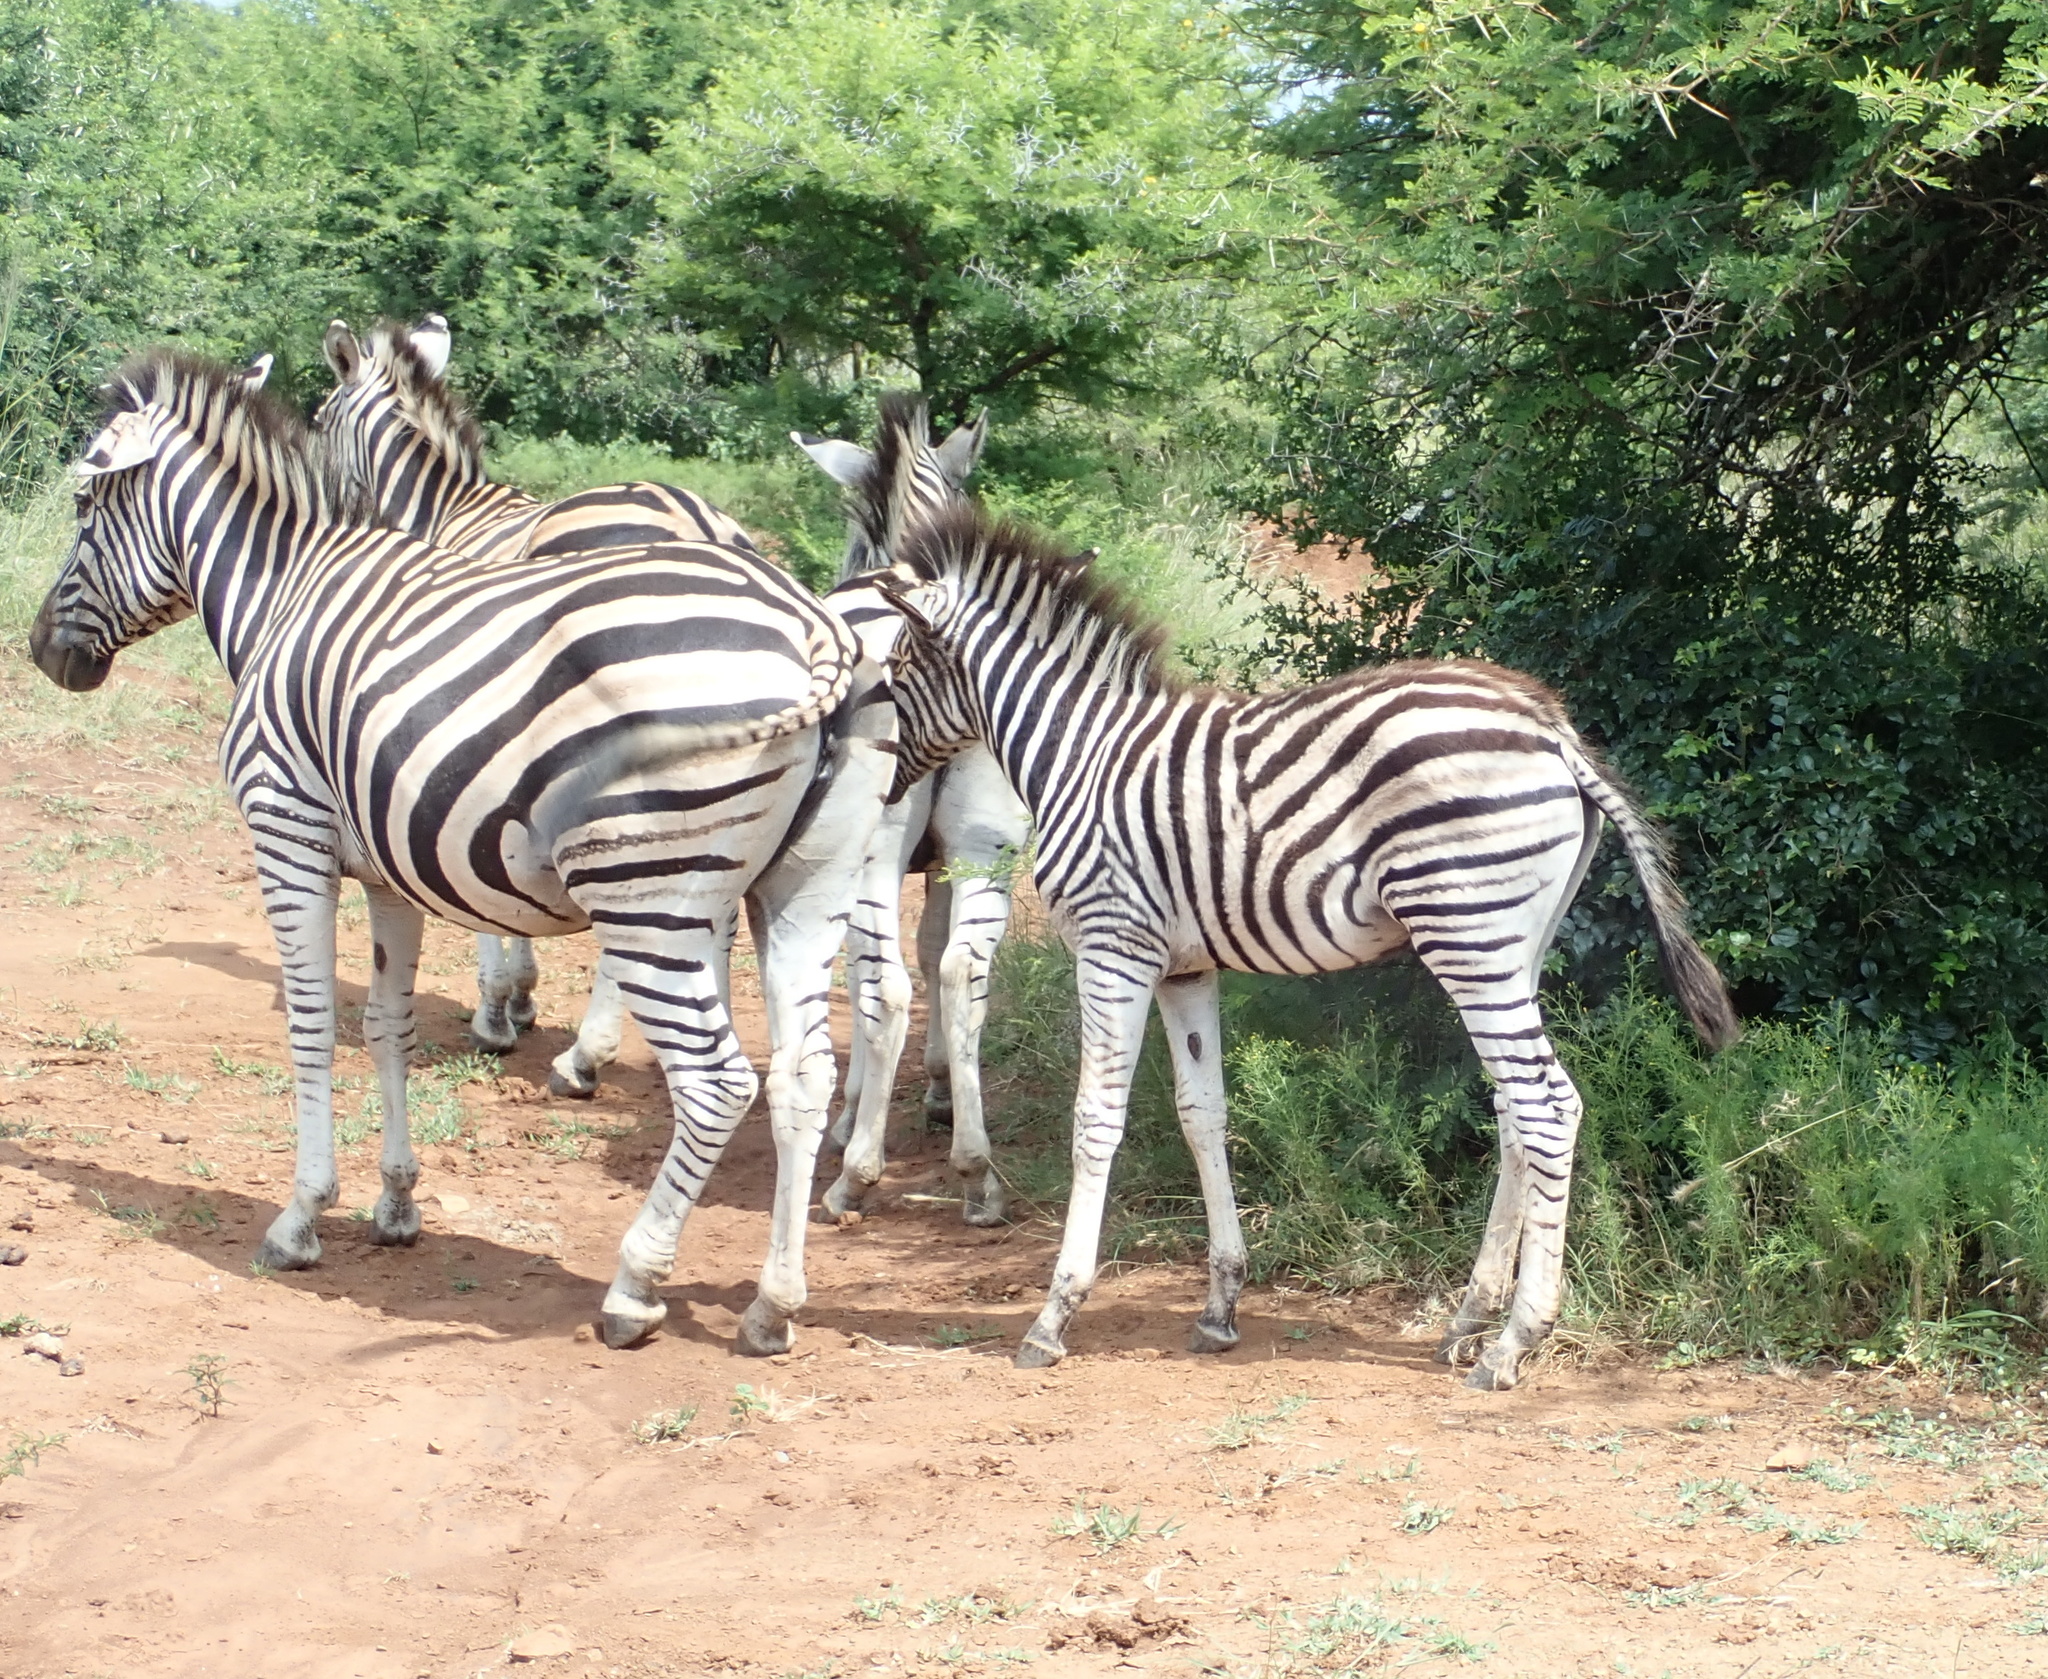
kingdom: Animalia
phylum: Chordata
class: Mammalia
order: Perissodactyla
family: Equidae
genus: Equus
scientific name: Equus quagga
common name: Plains zebra
